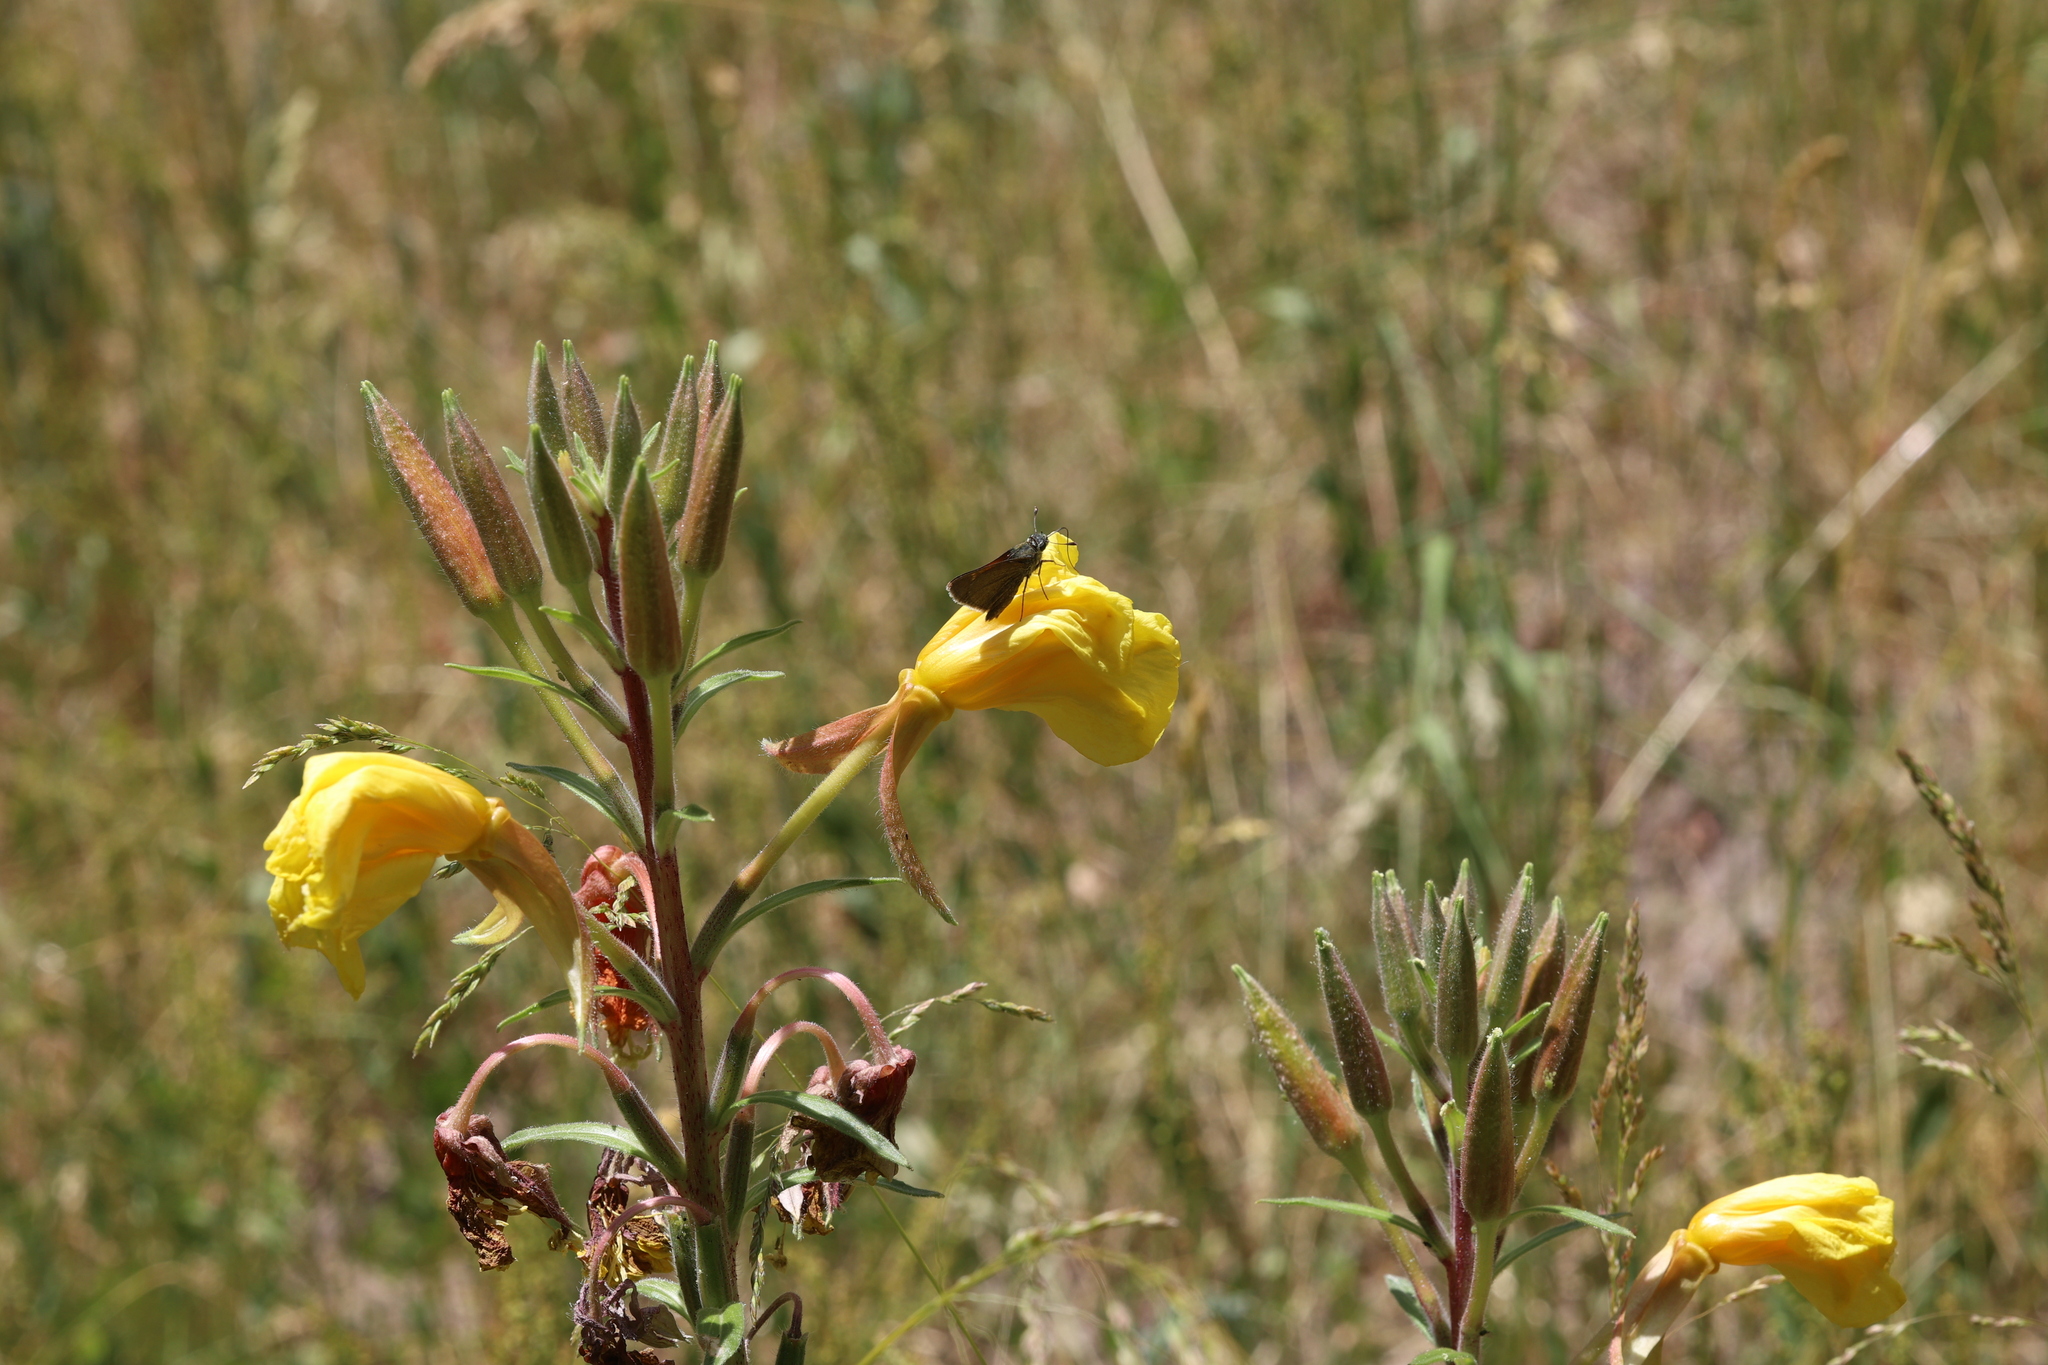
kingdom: Plantae
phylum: Tracheophyta
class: Magnoliopsida
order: Myrtales
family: Onagraceae
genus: Oenothera
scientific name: Oenothera elata
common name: Hooker's evening-primrose
